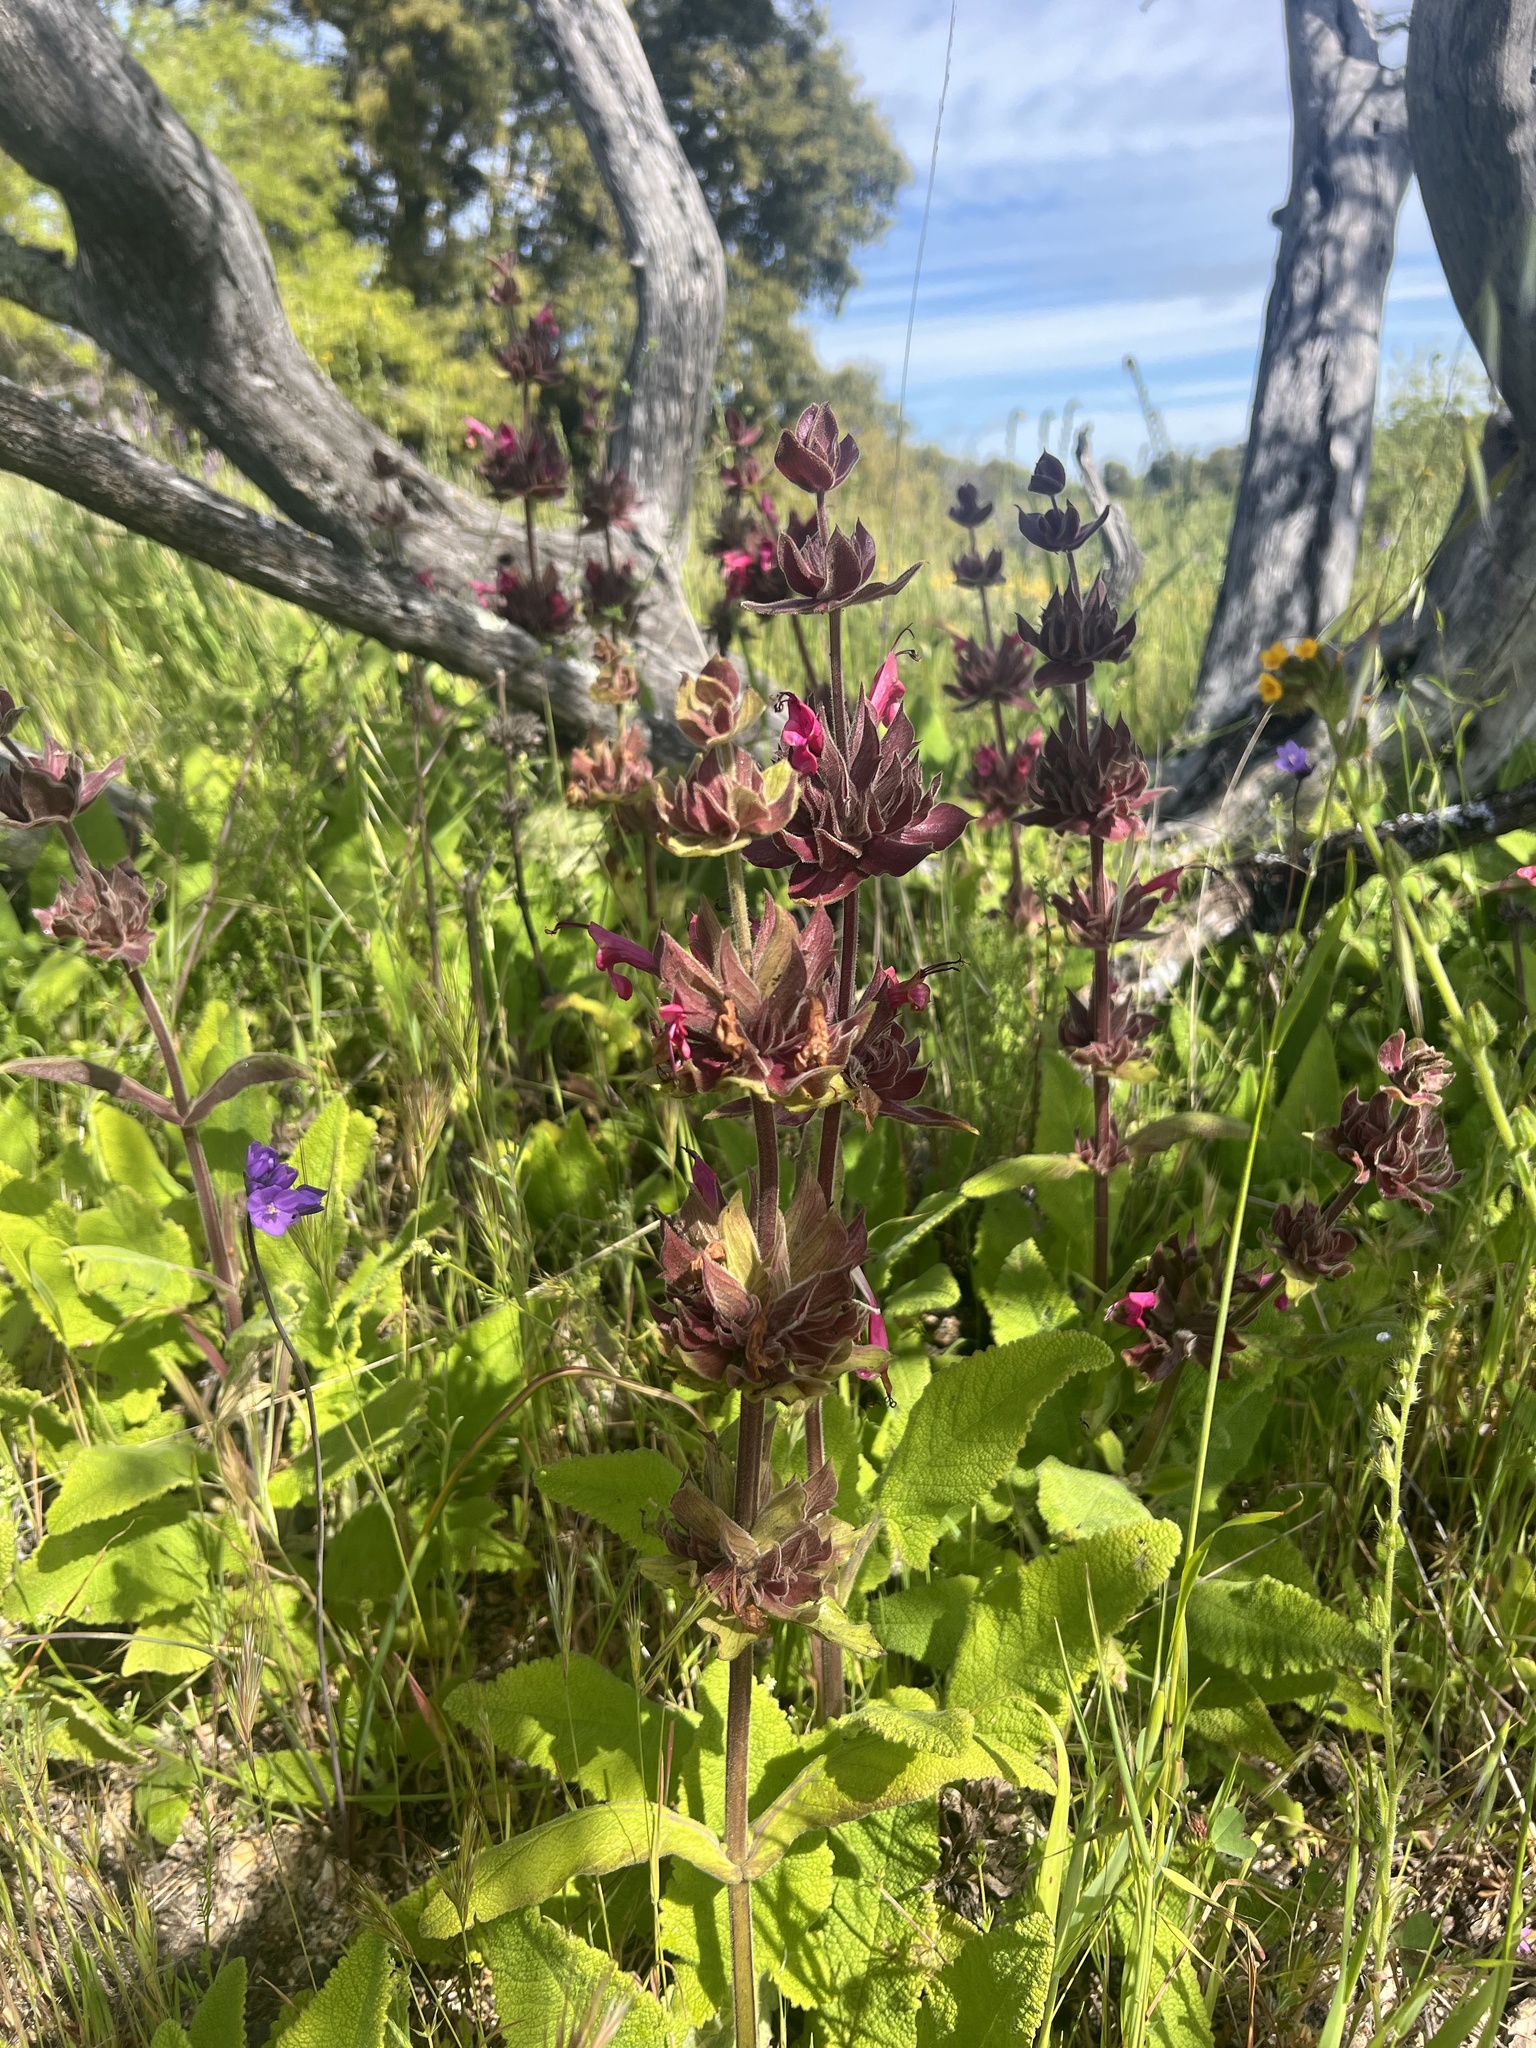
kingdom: Plantae
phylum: Tracheophyta
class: Magnoliopsida
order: Lamiales
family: Lamiaceae
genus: Salvia
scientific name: Salvia spathacea
